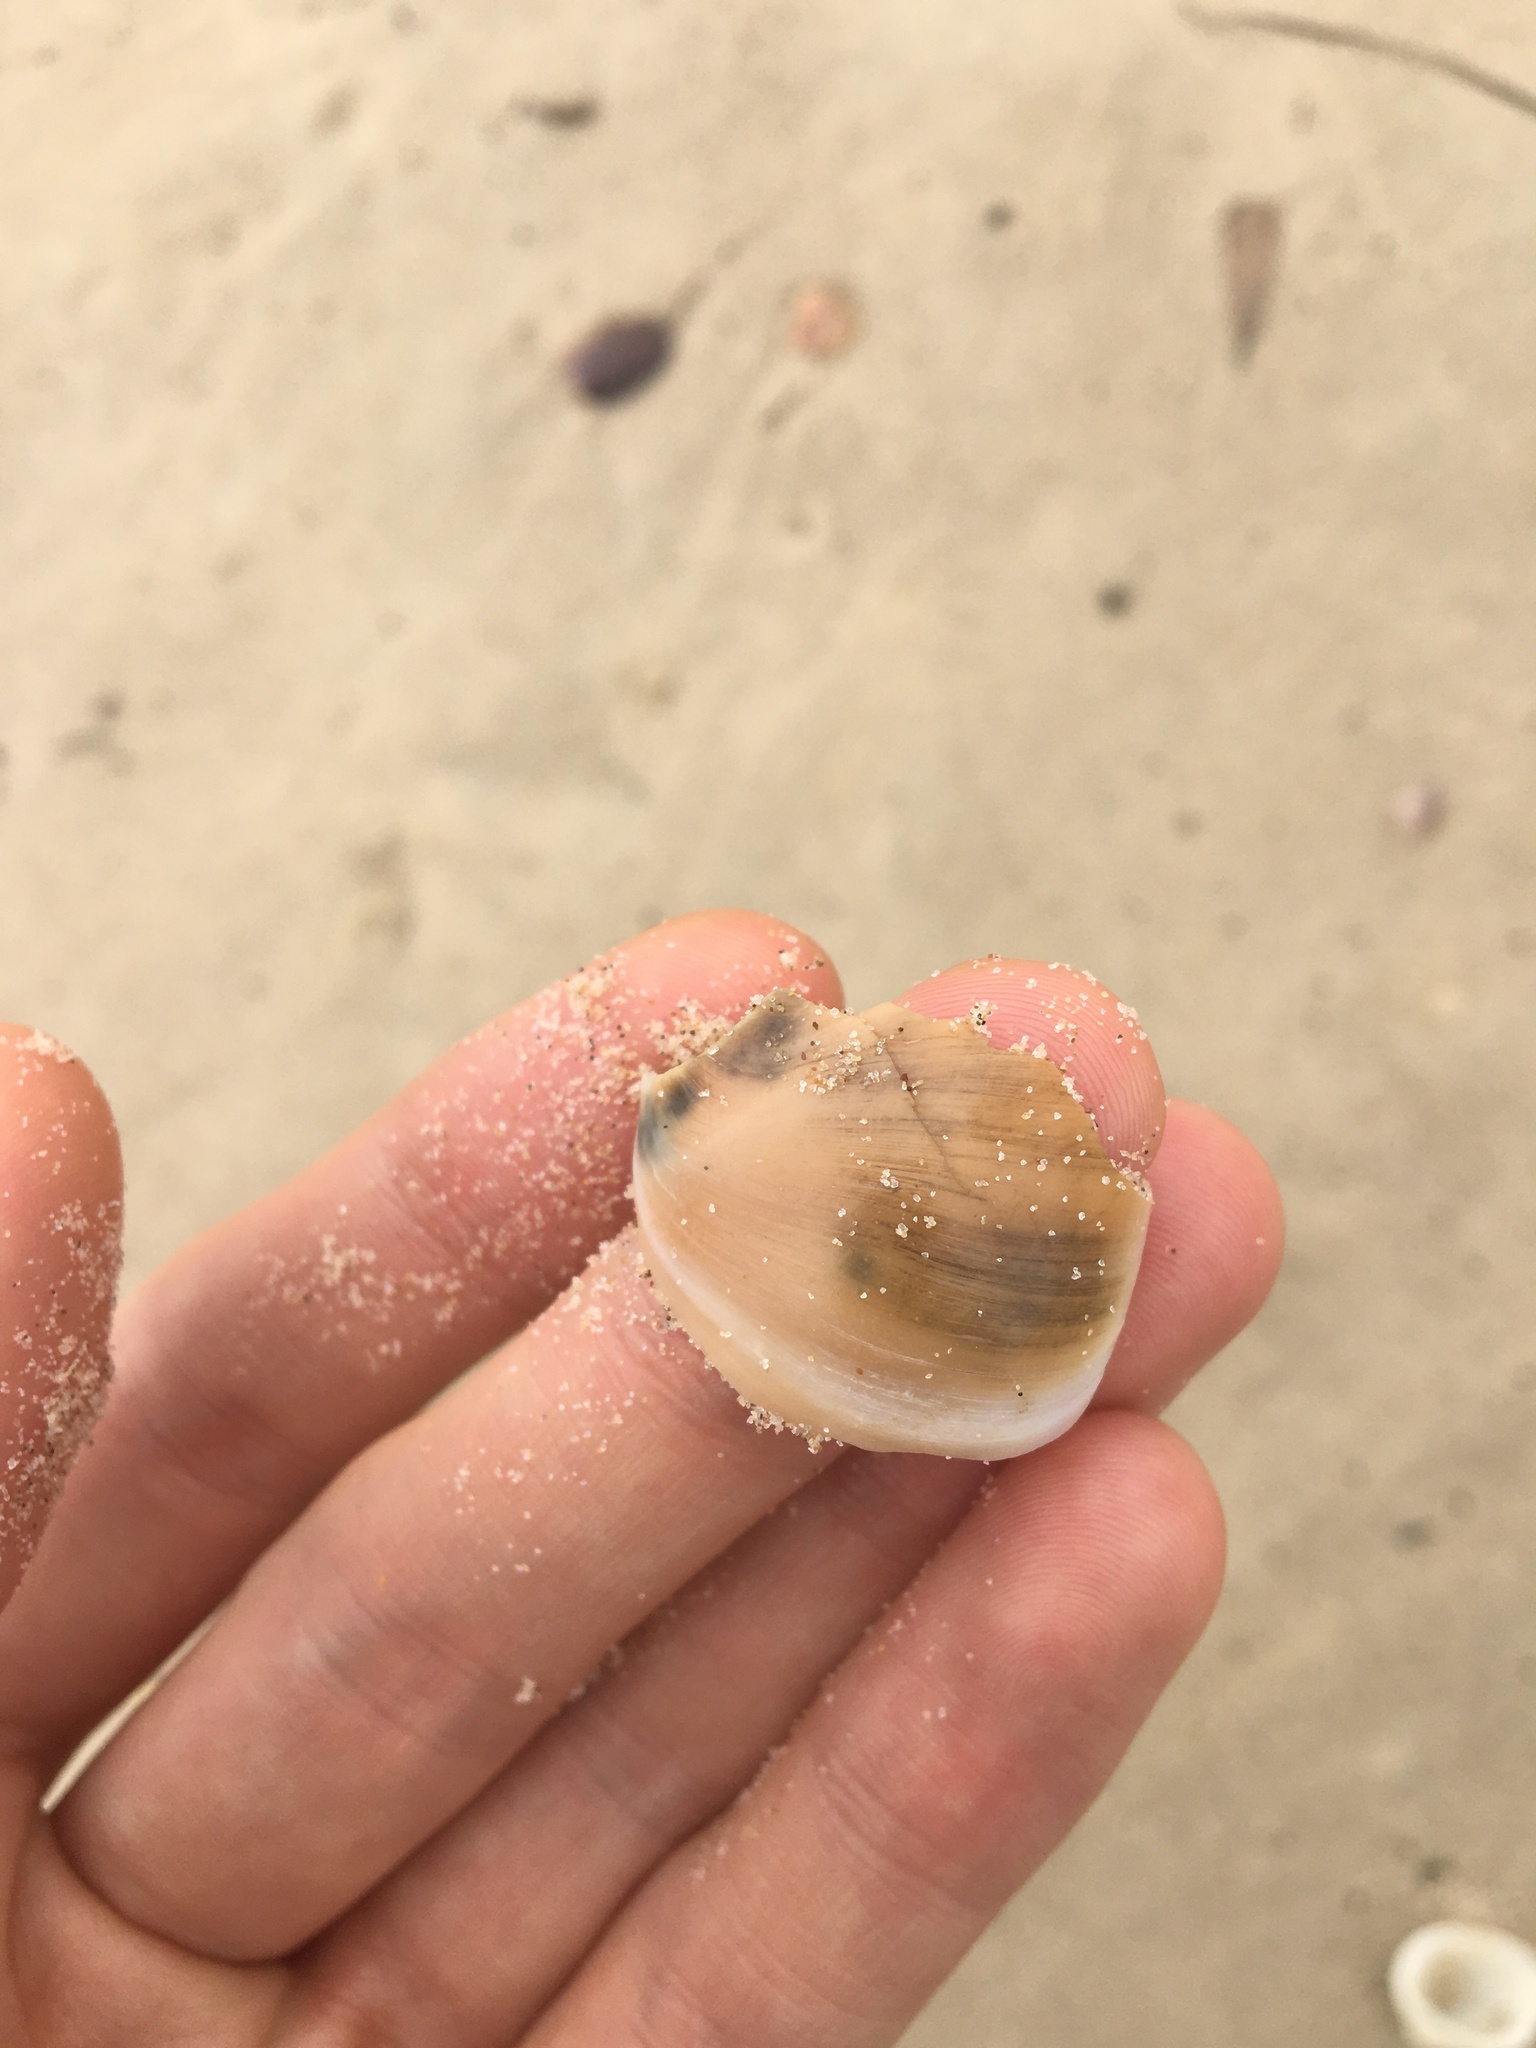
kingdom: Animalia
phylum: Mollusca
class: Gastropoda
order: Littorinimorpha
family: Naticidae
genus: Neverita
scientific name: Neverita didyma
